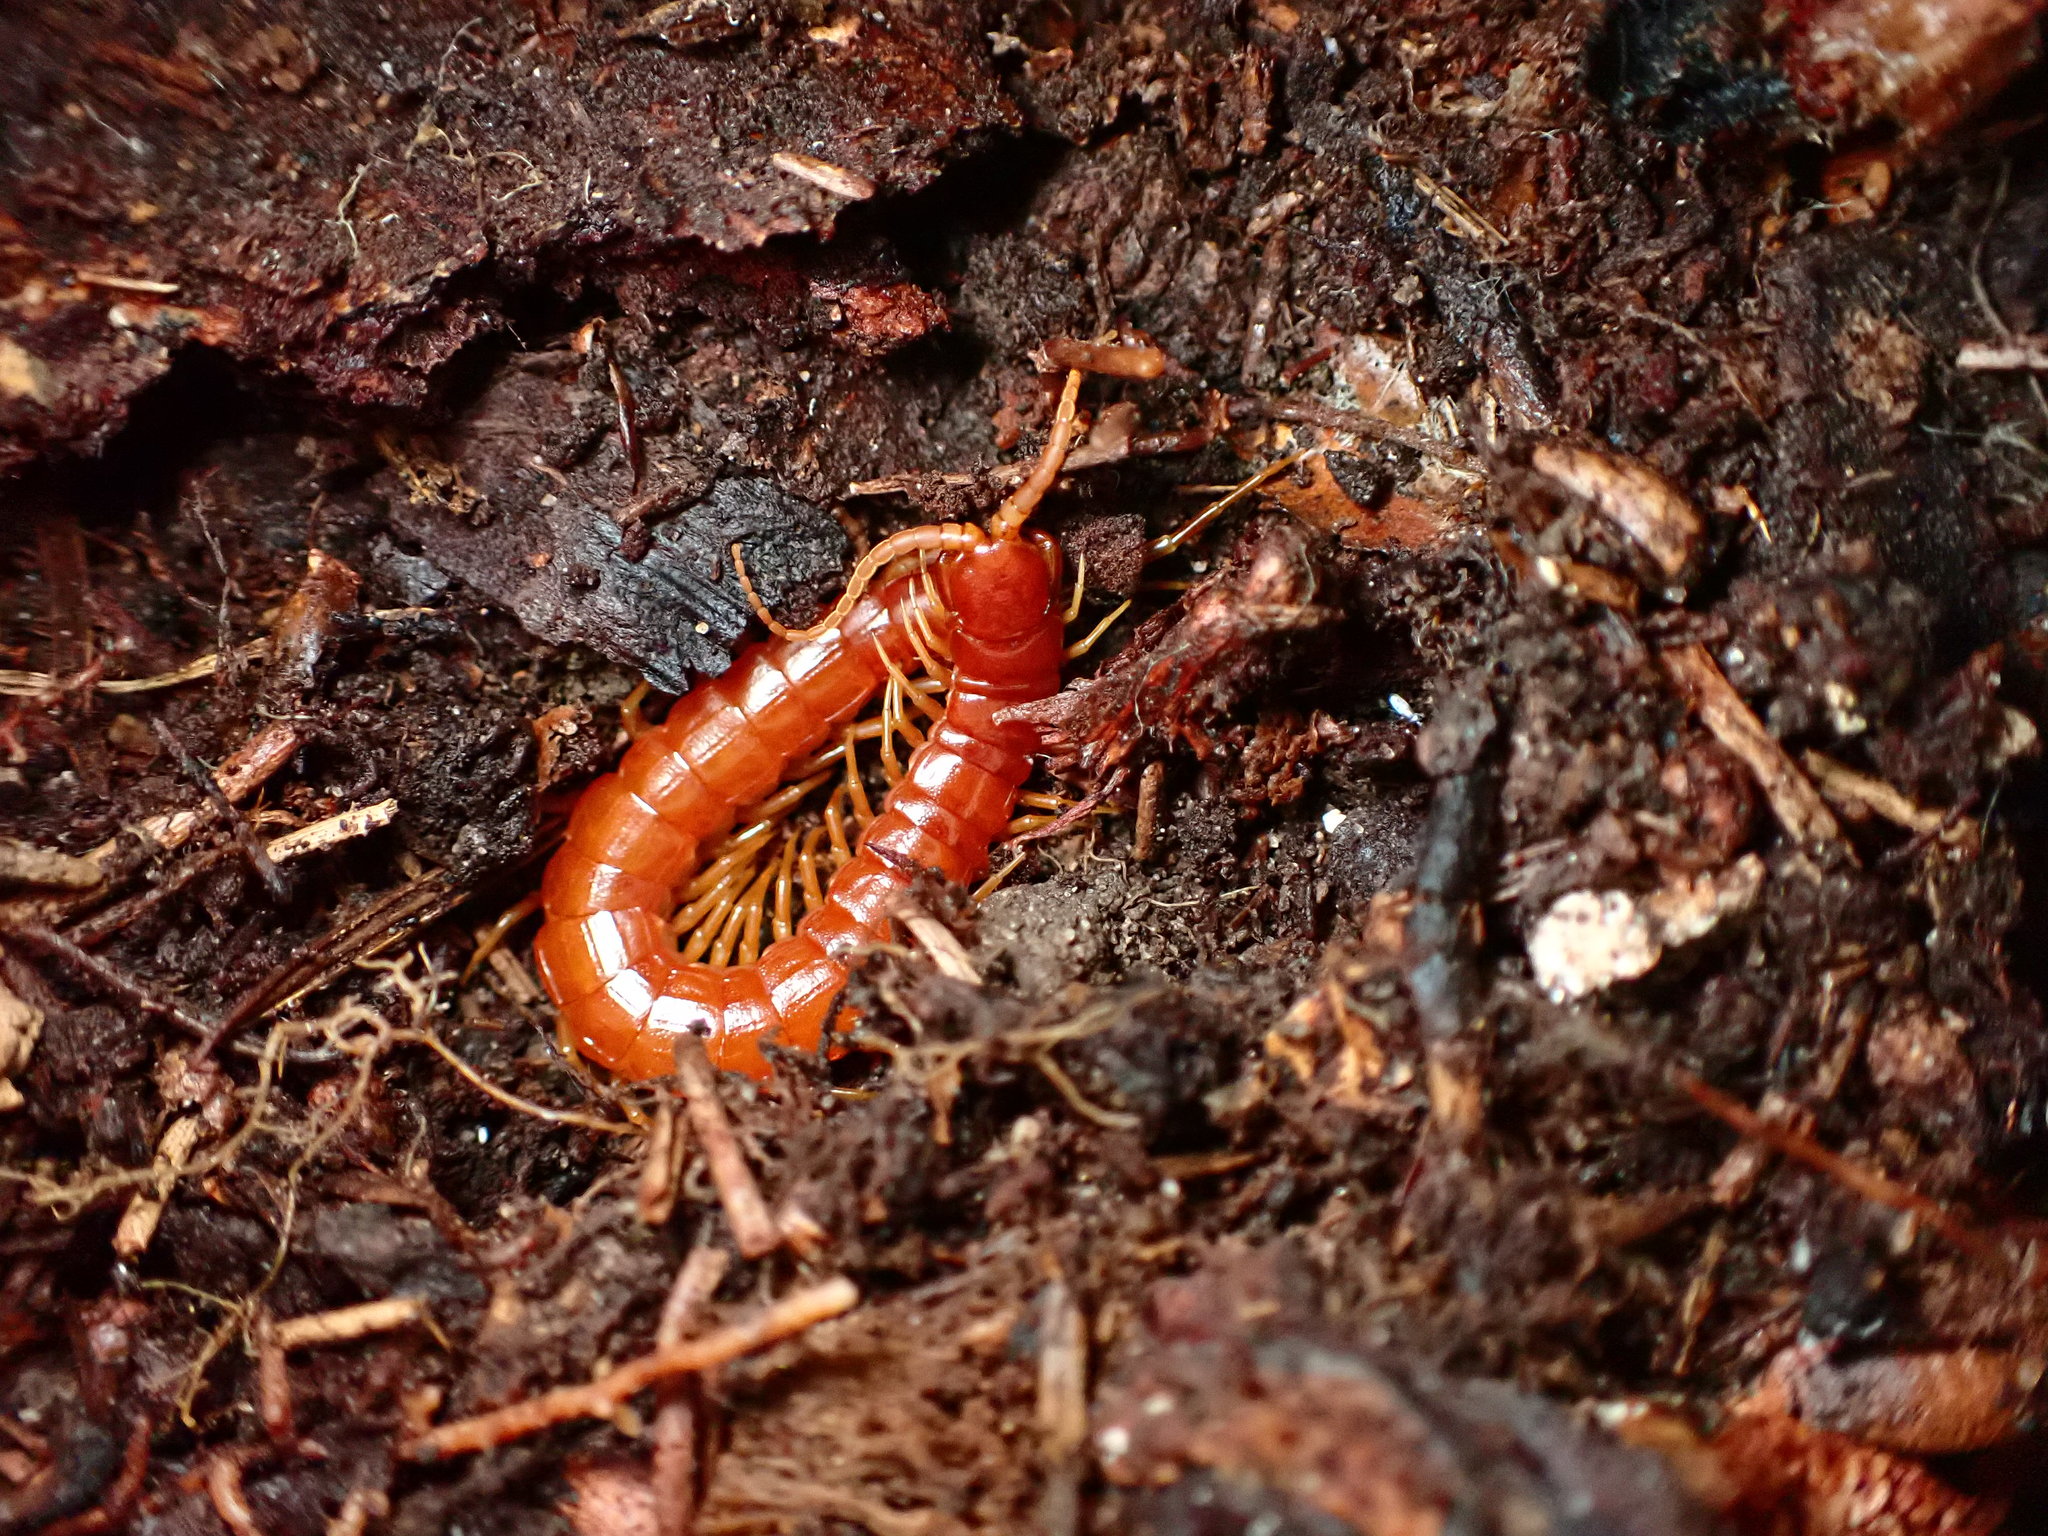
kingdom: Animalia
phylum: Arthropoda
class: Chilopoda
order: Scolopendromorpha
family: Scolopocryptopidae
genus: Scolopocryptops
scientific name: Scolopocryptops spinicaudus
